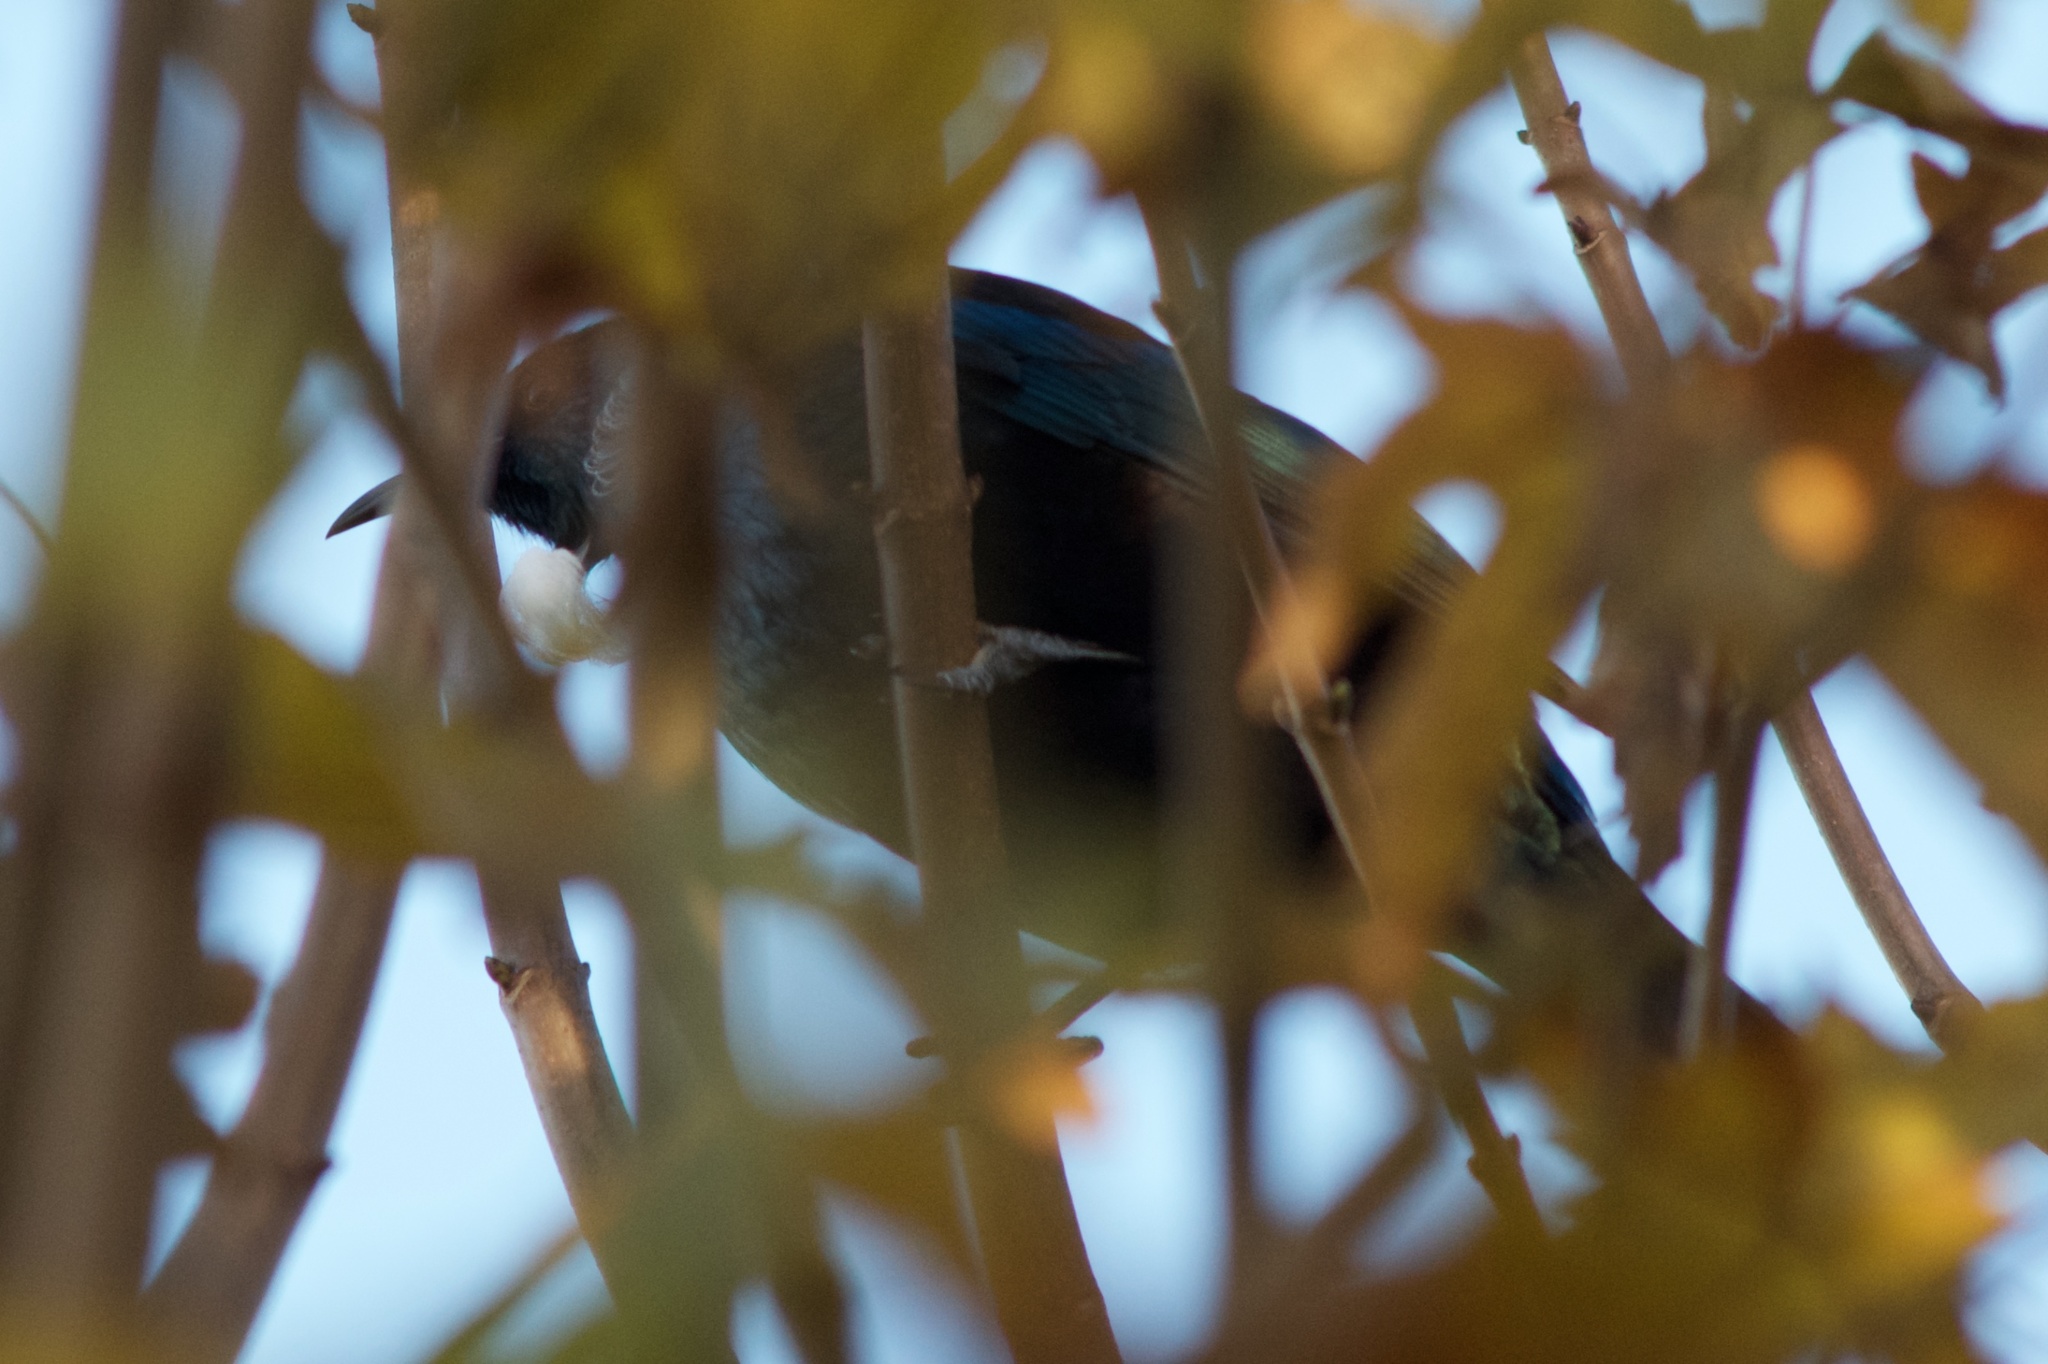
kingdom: Animalia
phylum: Chordata
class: Aves
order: Passeriformes
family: Meliphagidae
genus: Prosthemadera
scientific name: Prosthemadera novaeseelandiae
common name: Tui
